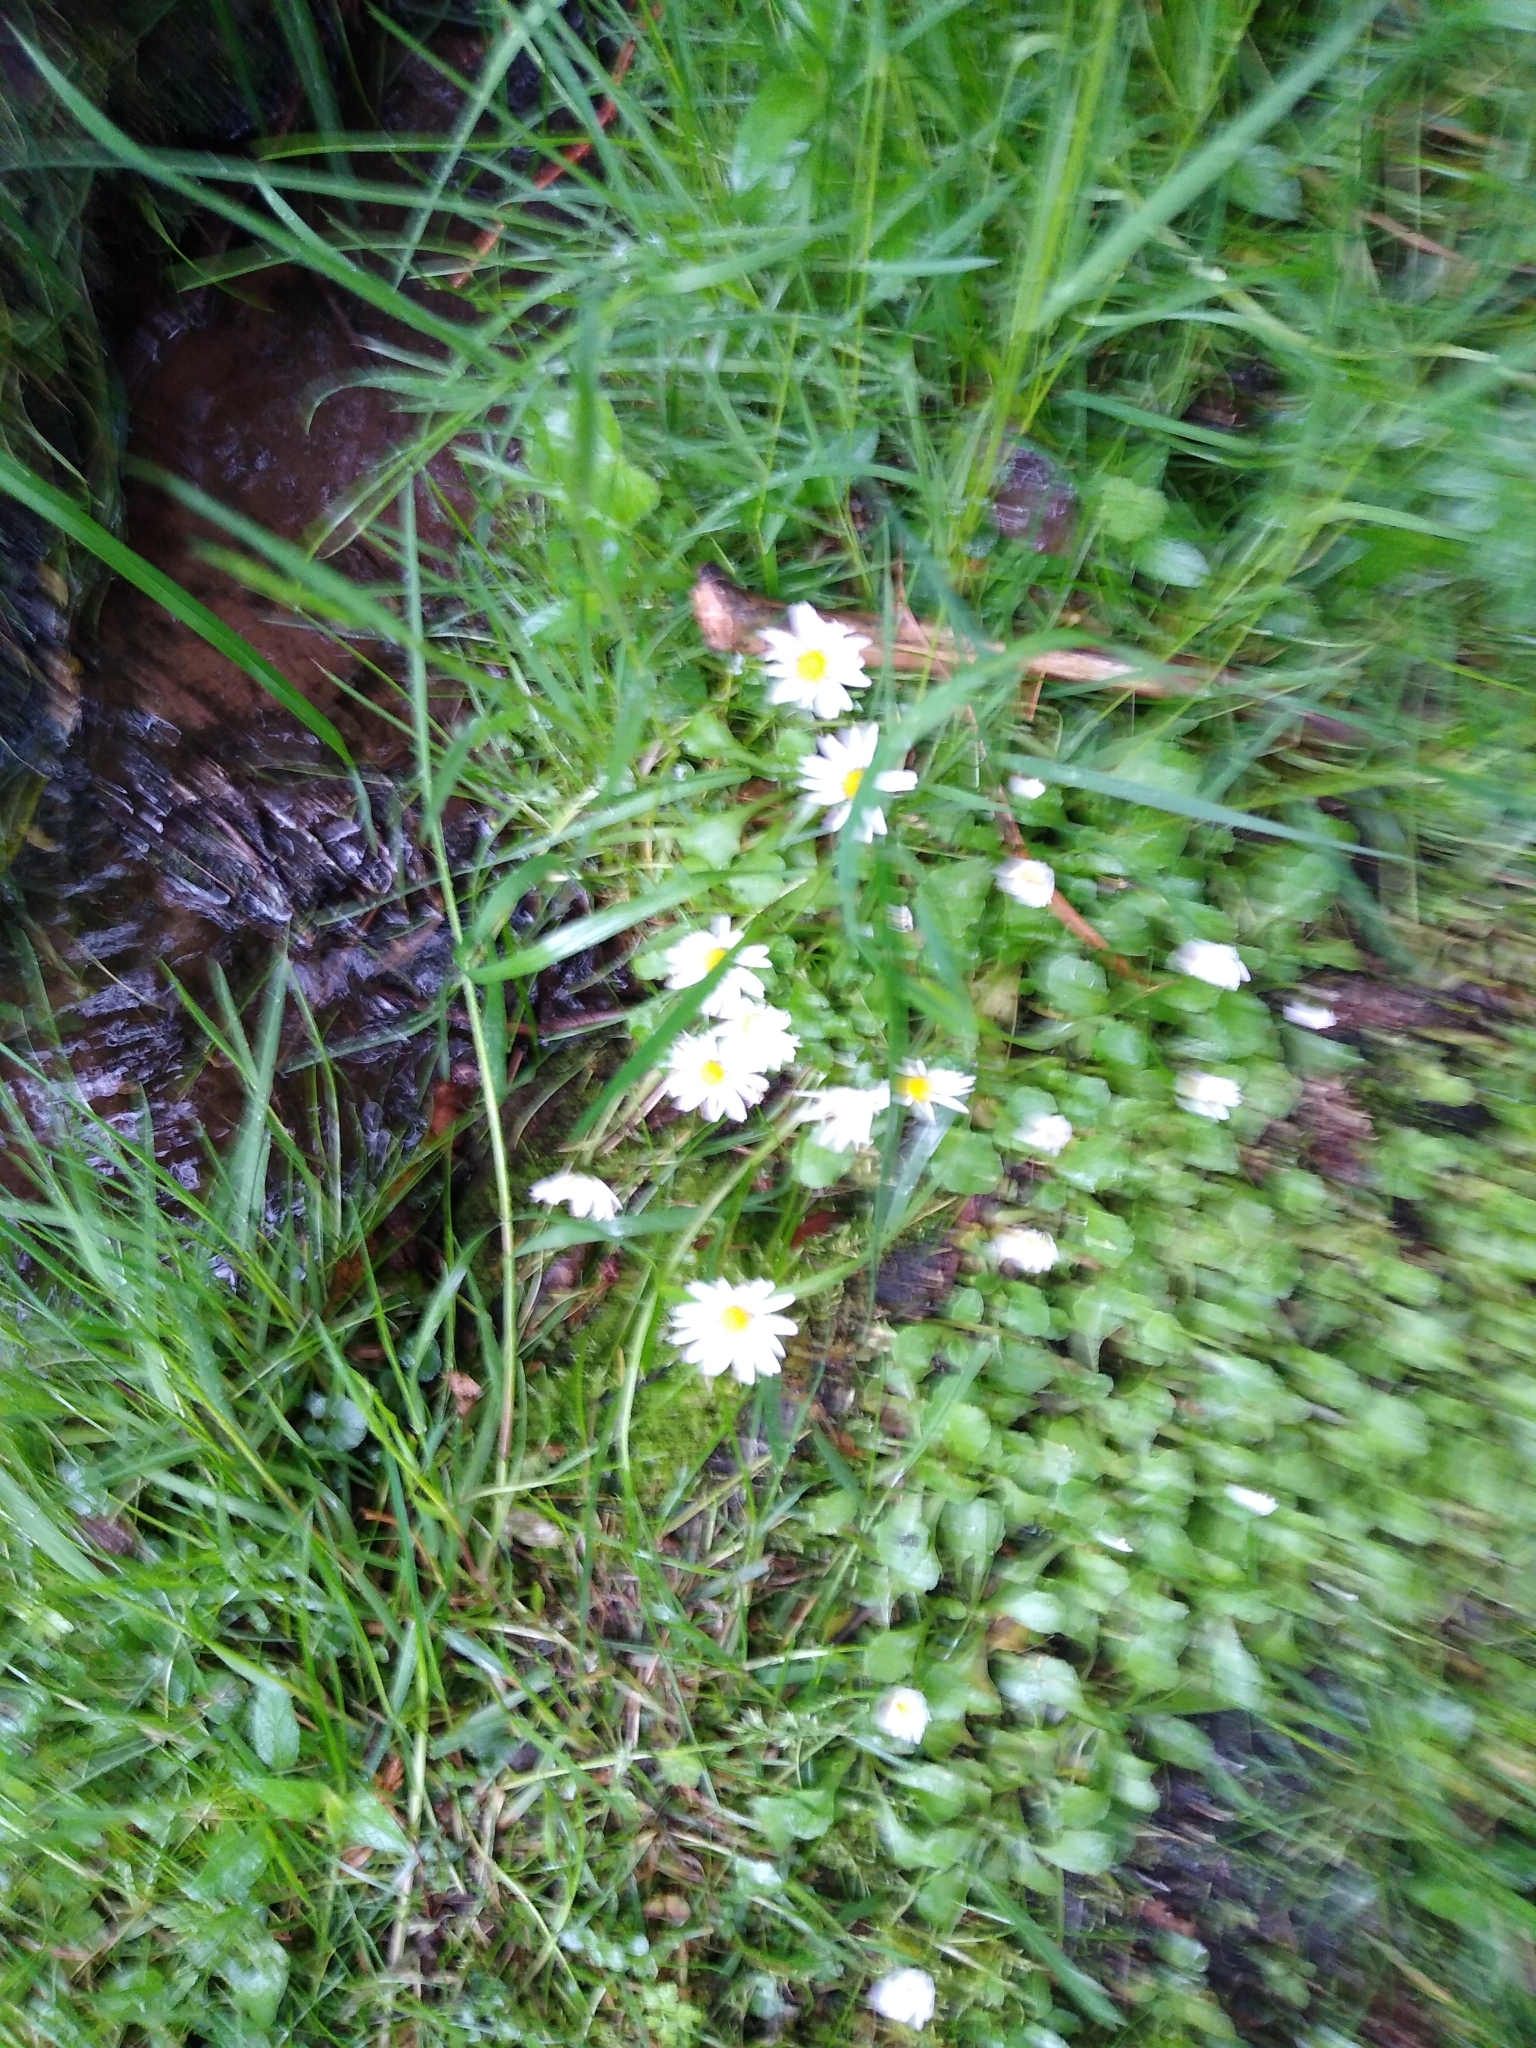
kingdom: Plantae
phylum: Tracheophyta
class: Magnoliopsida
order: Asterales
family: Asteraceae
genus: Bellis
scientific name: Bellis perennis
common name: Lawndaisy
